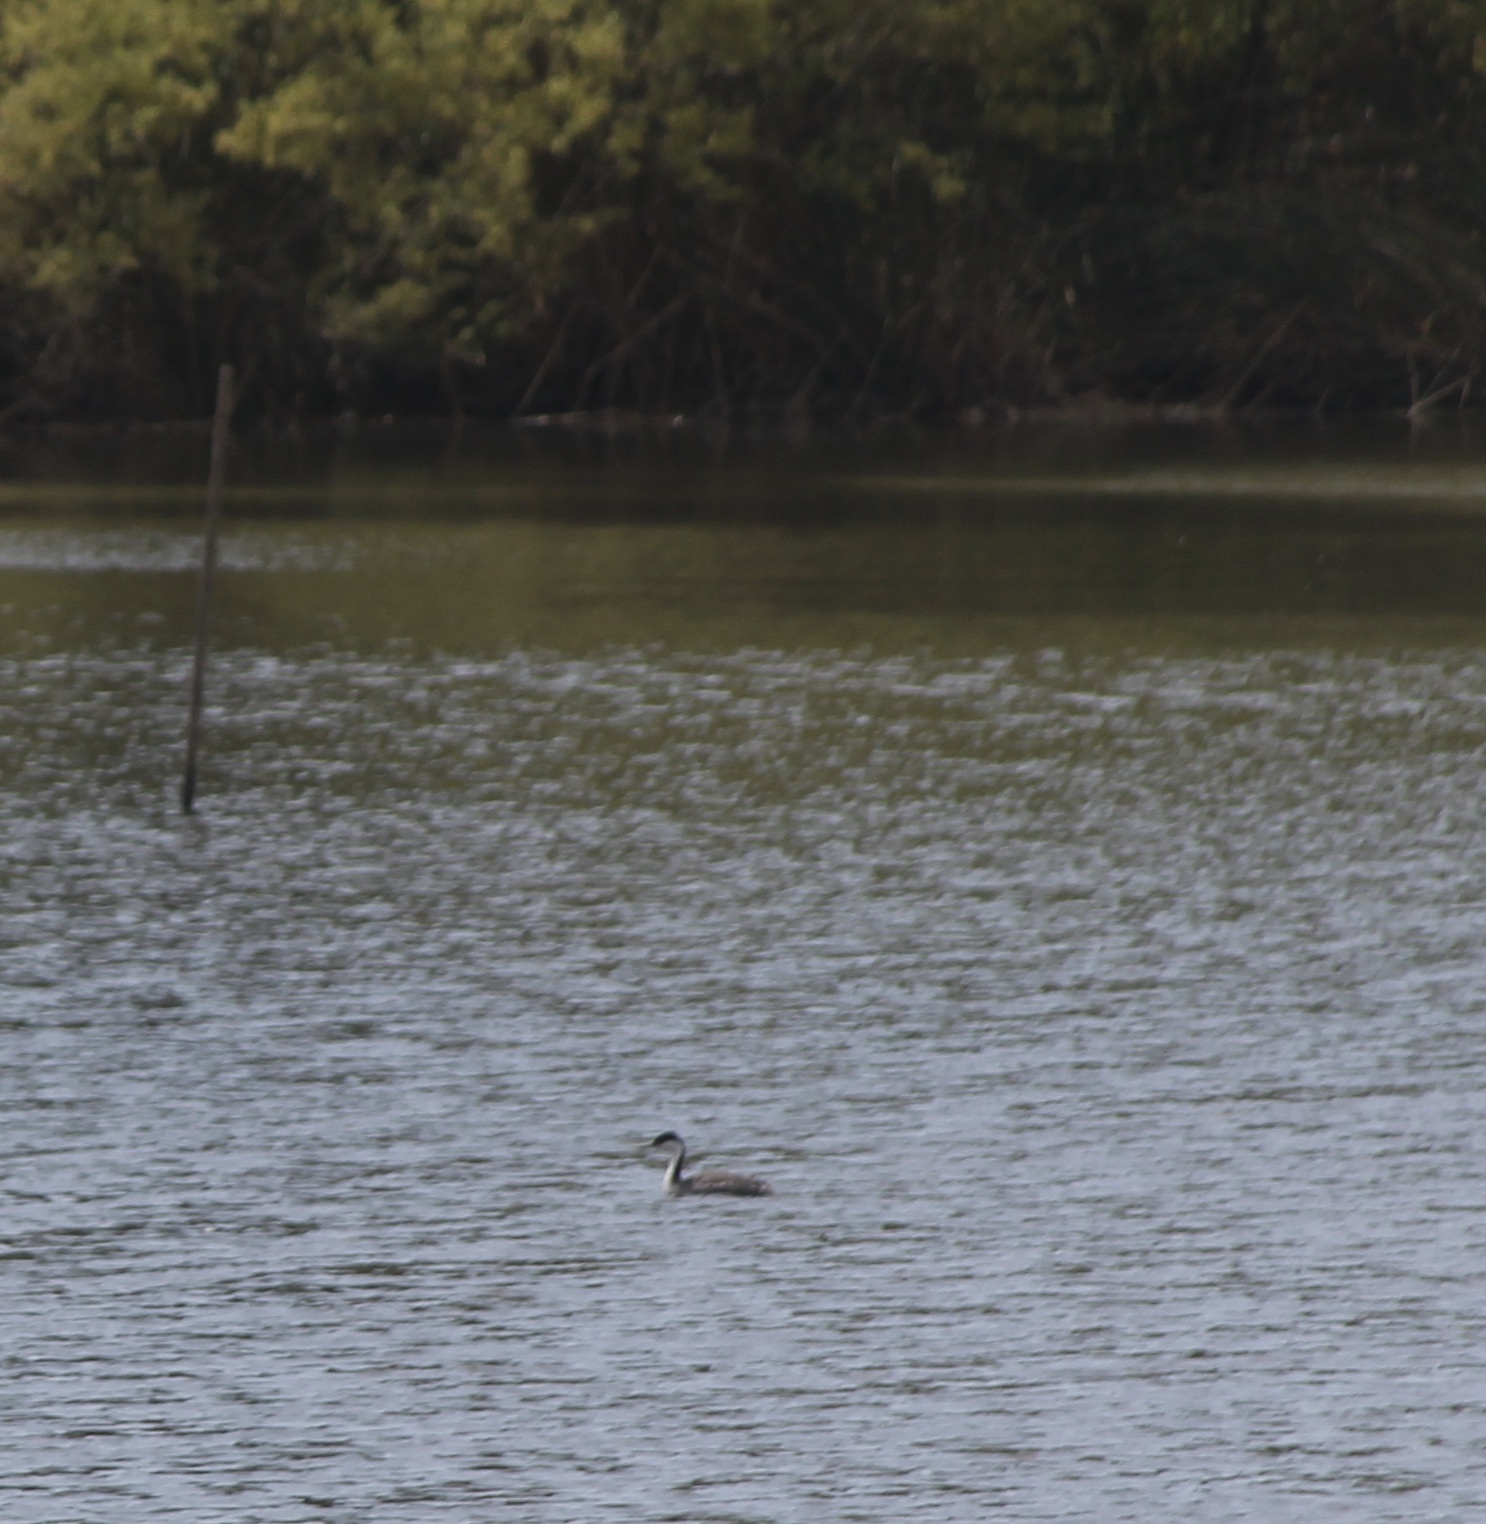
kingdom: Animalia
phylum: Chordata
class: Aves
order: Podicipediformes
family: Podicipedidae
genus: Aechmophorus
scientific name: Aechmophorus occidentalis
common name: Western grebe
